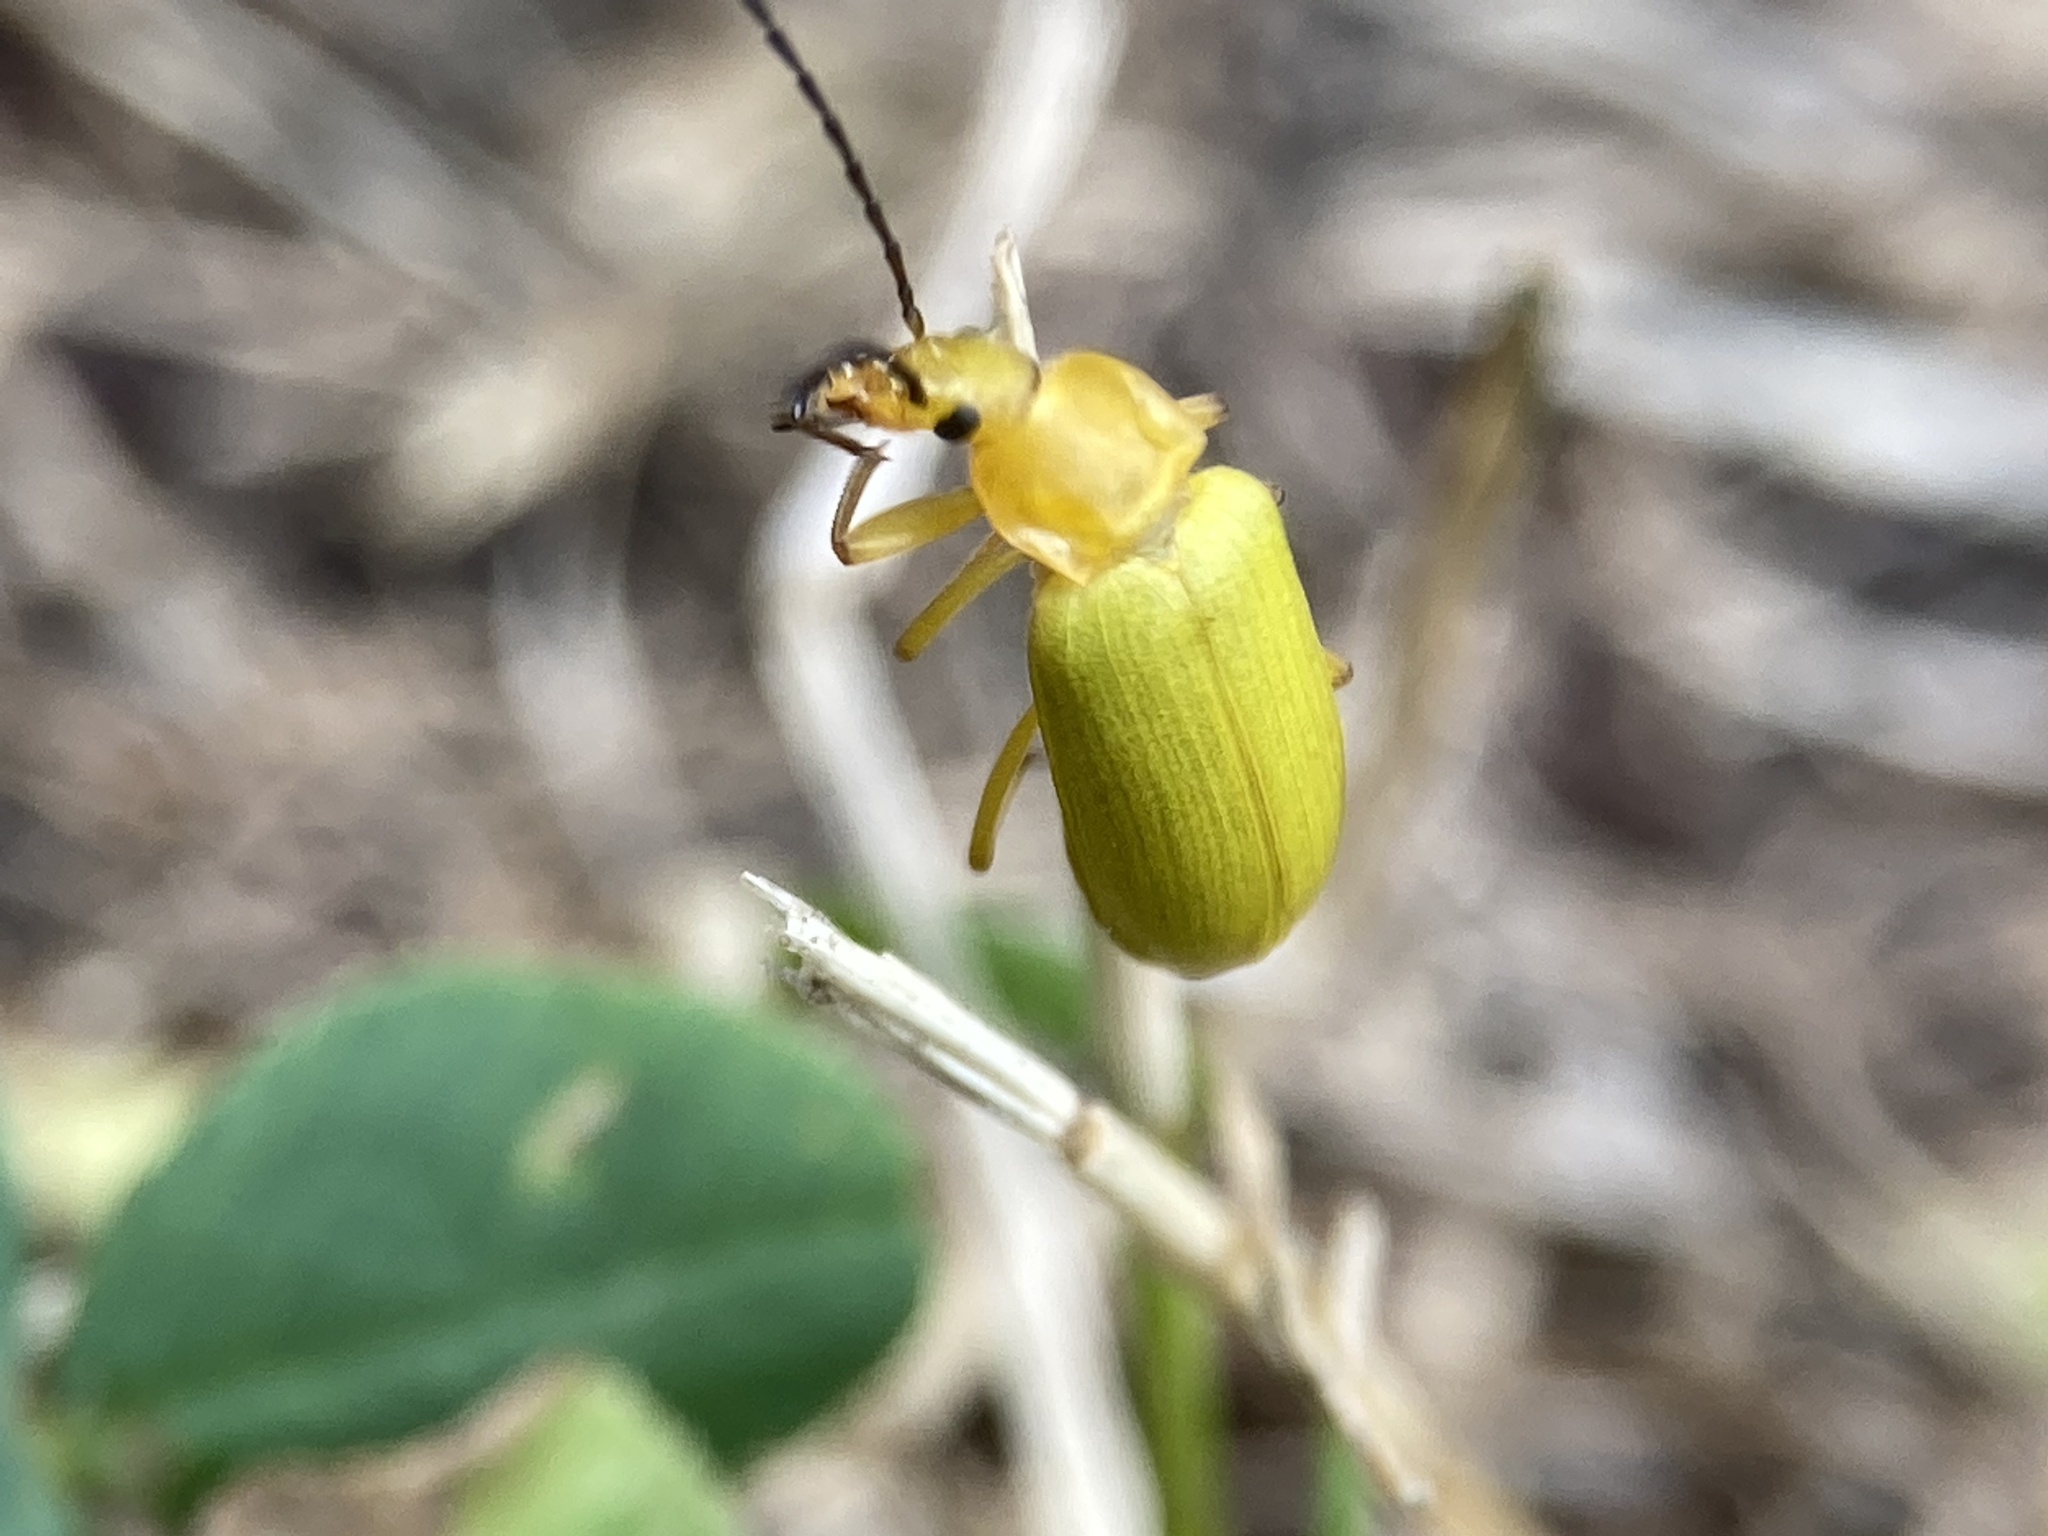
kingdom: Animalia
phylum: Arthropoda
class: Insecta
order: Coleoptera
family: Tenebrionidae
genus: Cteniopus
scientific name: Cteniopus sulphureus
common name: Sulphur beetle
